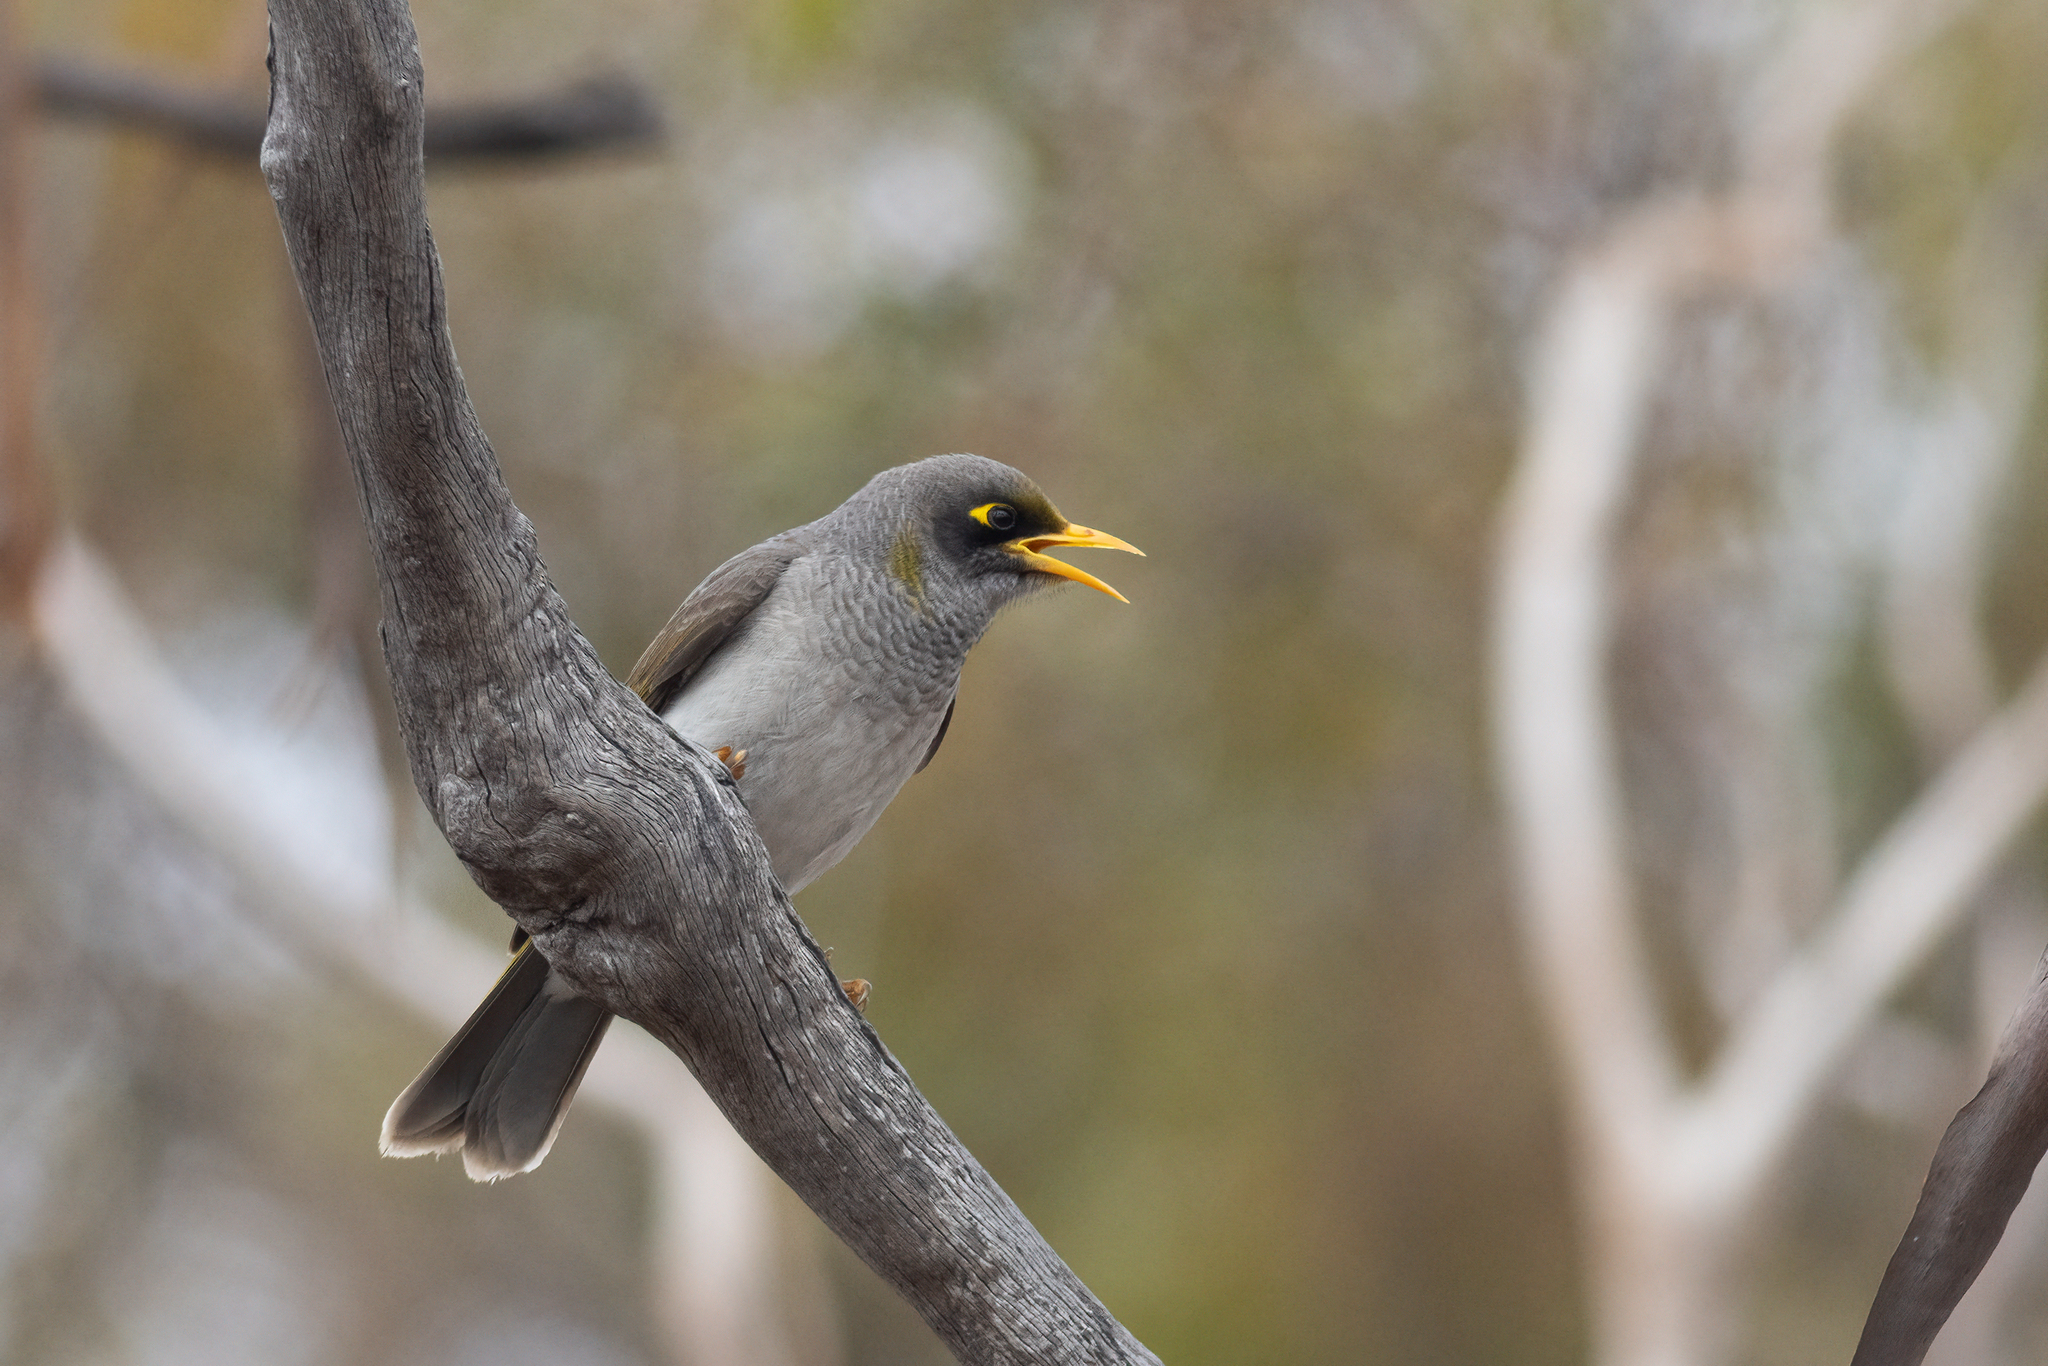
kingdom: Animalia
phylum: Chordata
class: Aves
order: Passeriformes
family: Meliphagidae
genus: Manorina
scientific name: Manorina melanotis
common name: Black-eared miner
